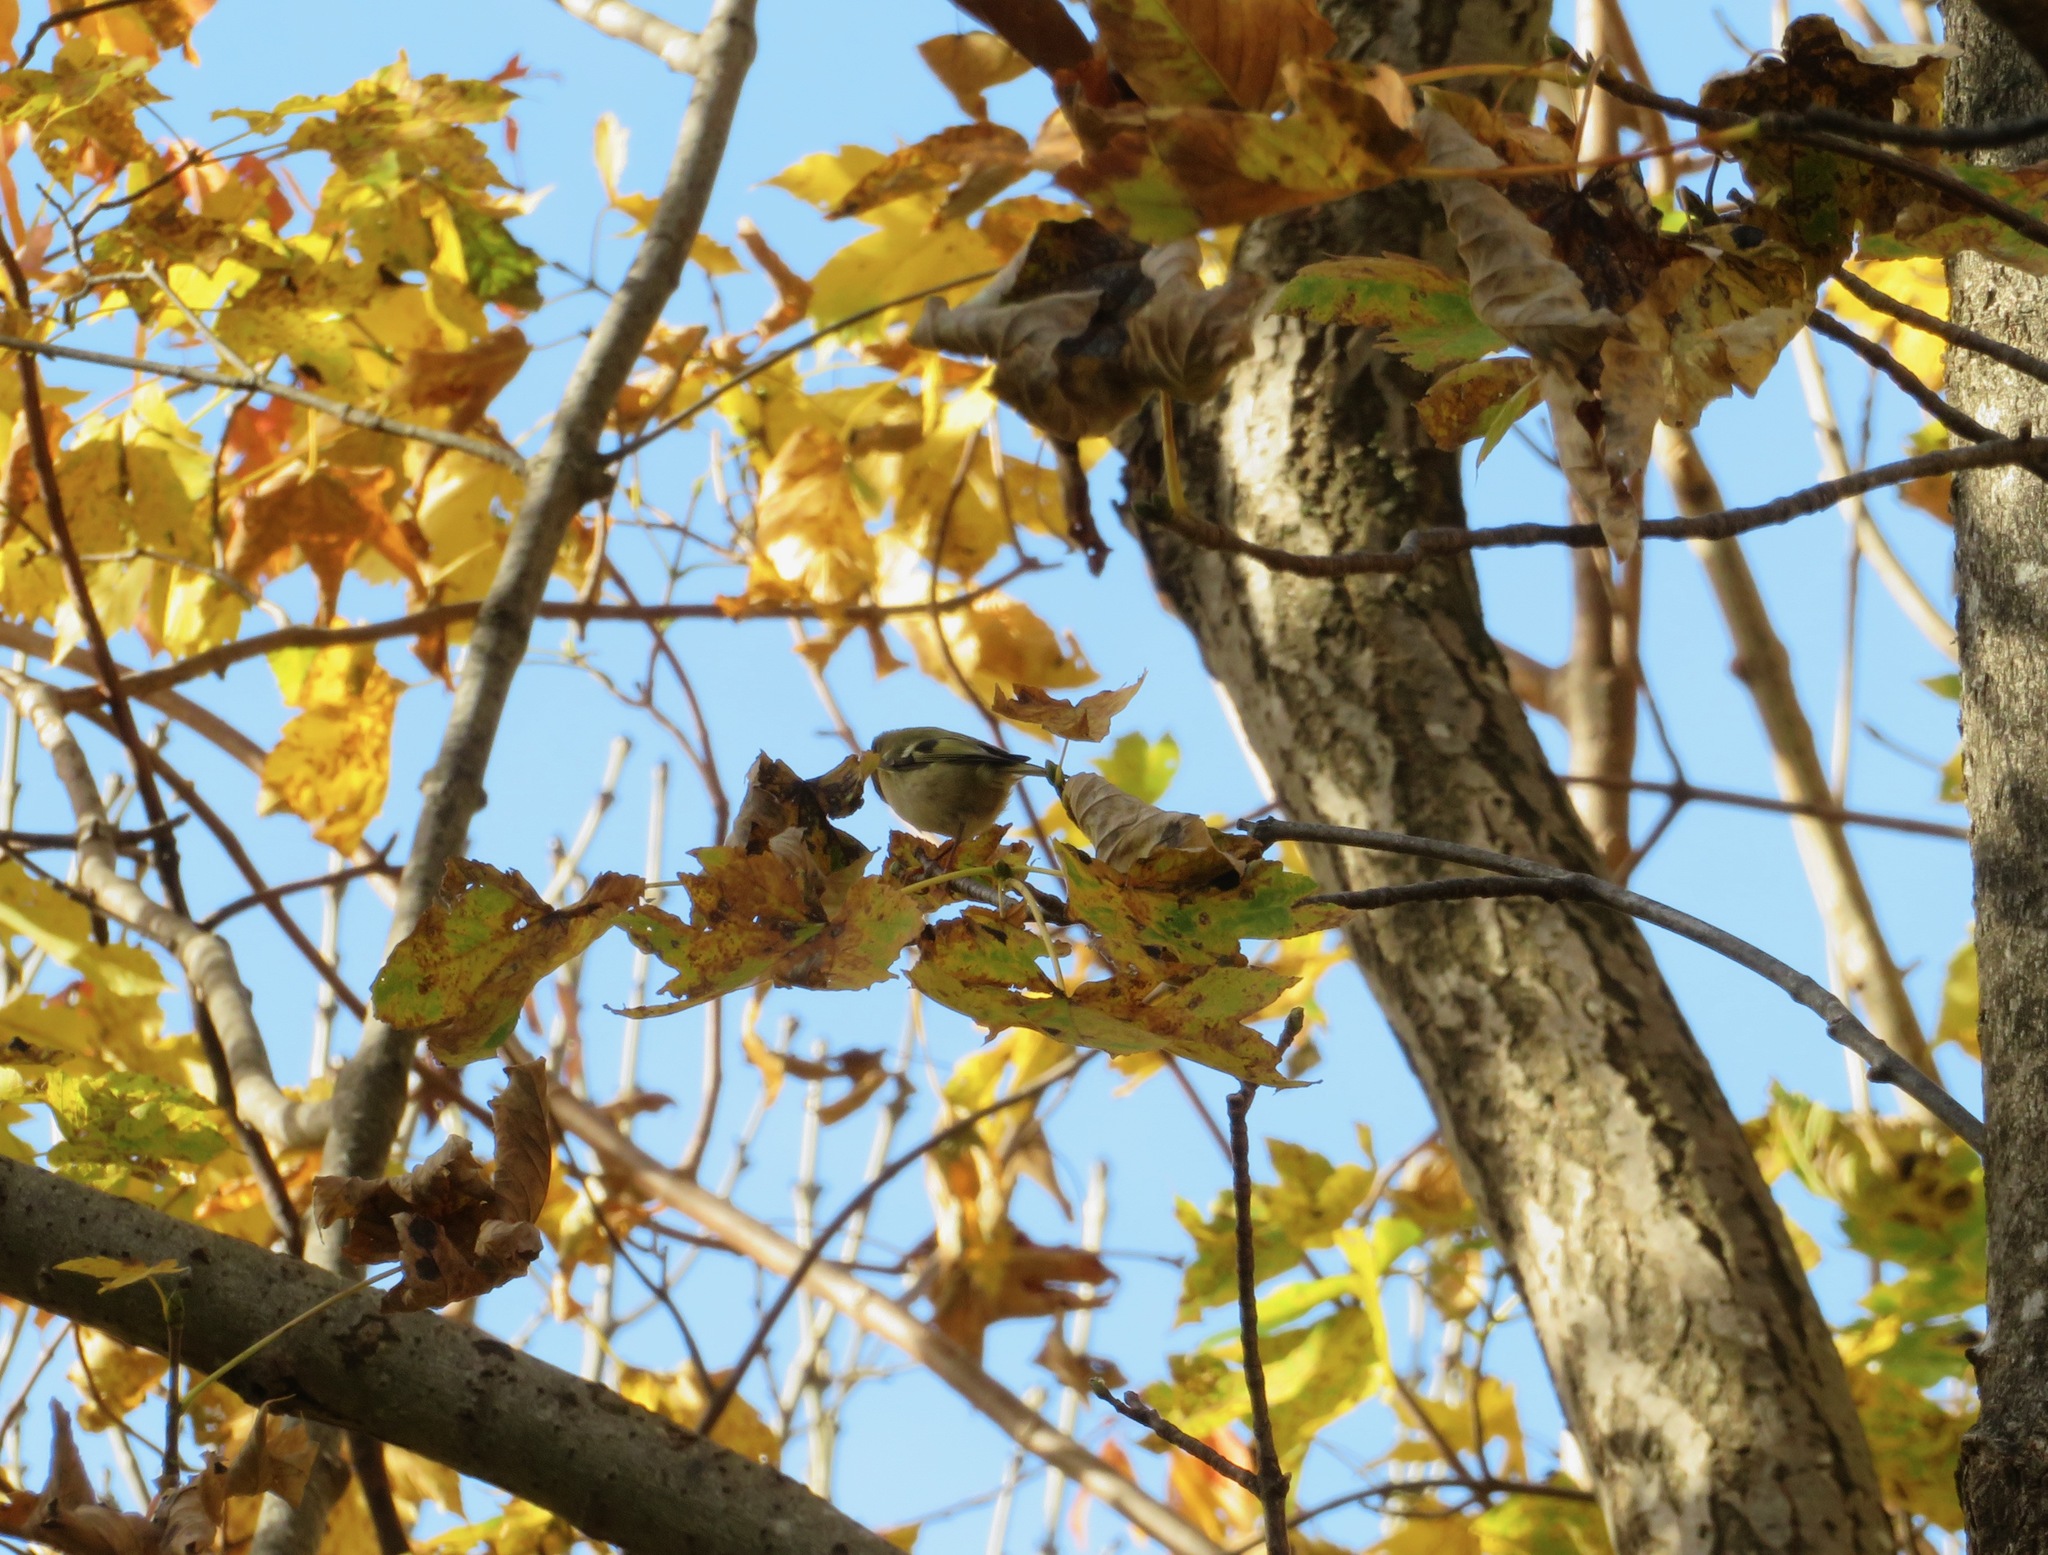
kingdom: Animalia
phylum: Chordata
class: Aves
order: Passeriformes
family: Regulidae
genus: Regulus
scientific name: Regulus regulus
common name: Goldcrest
